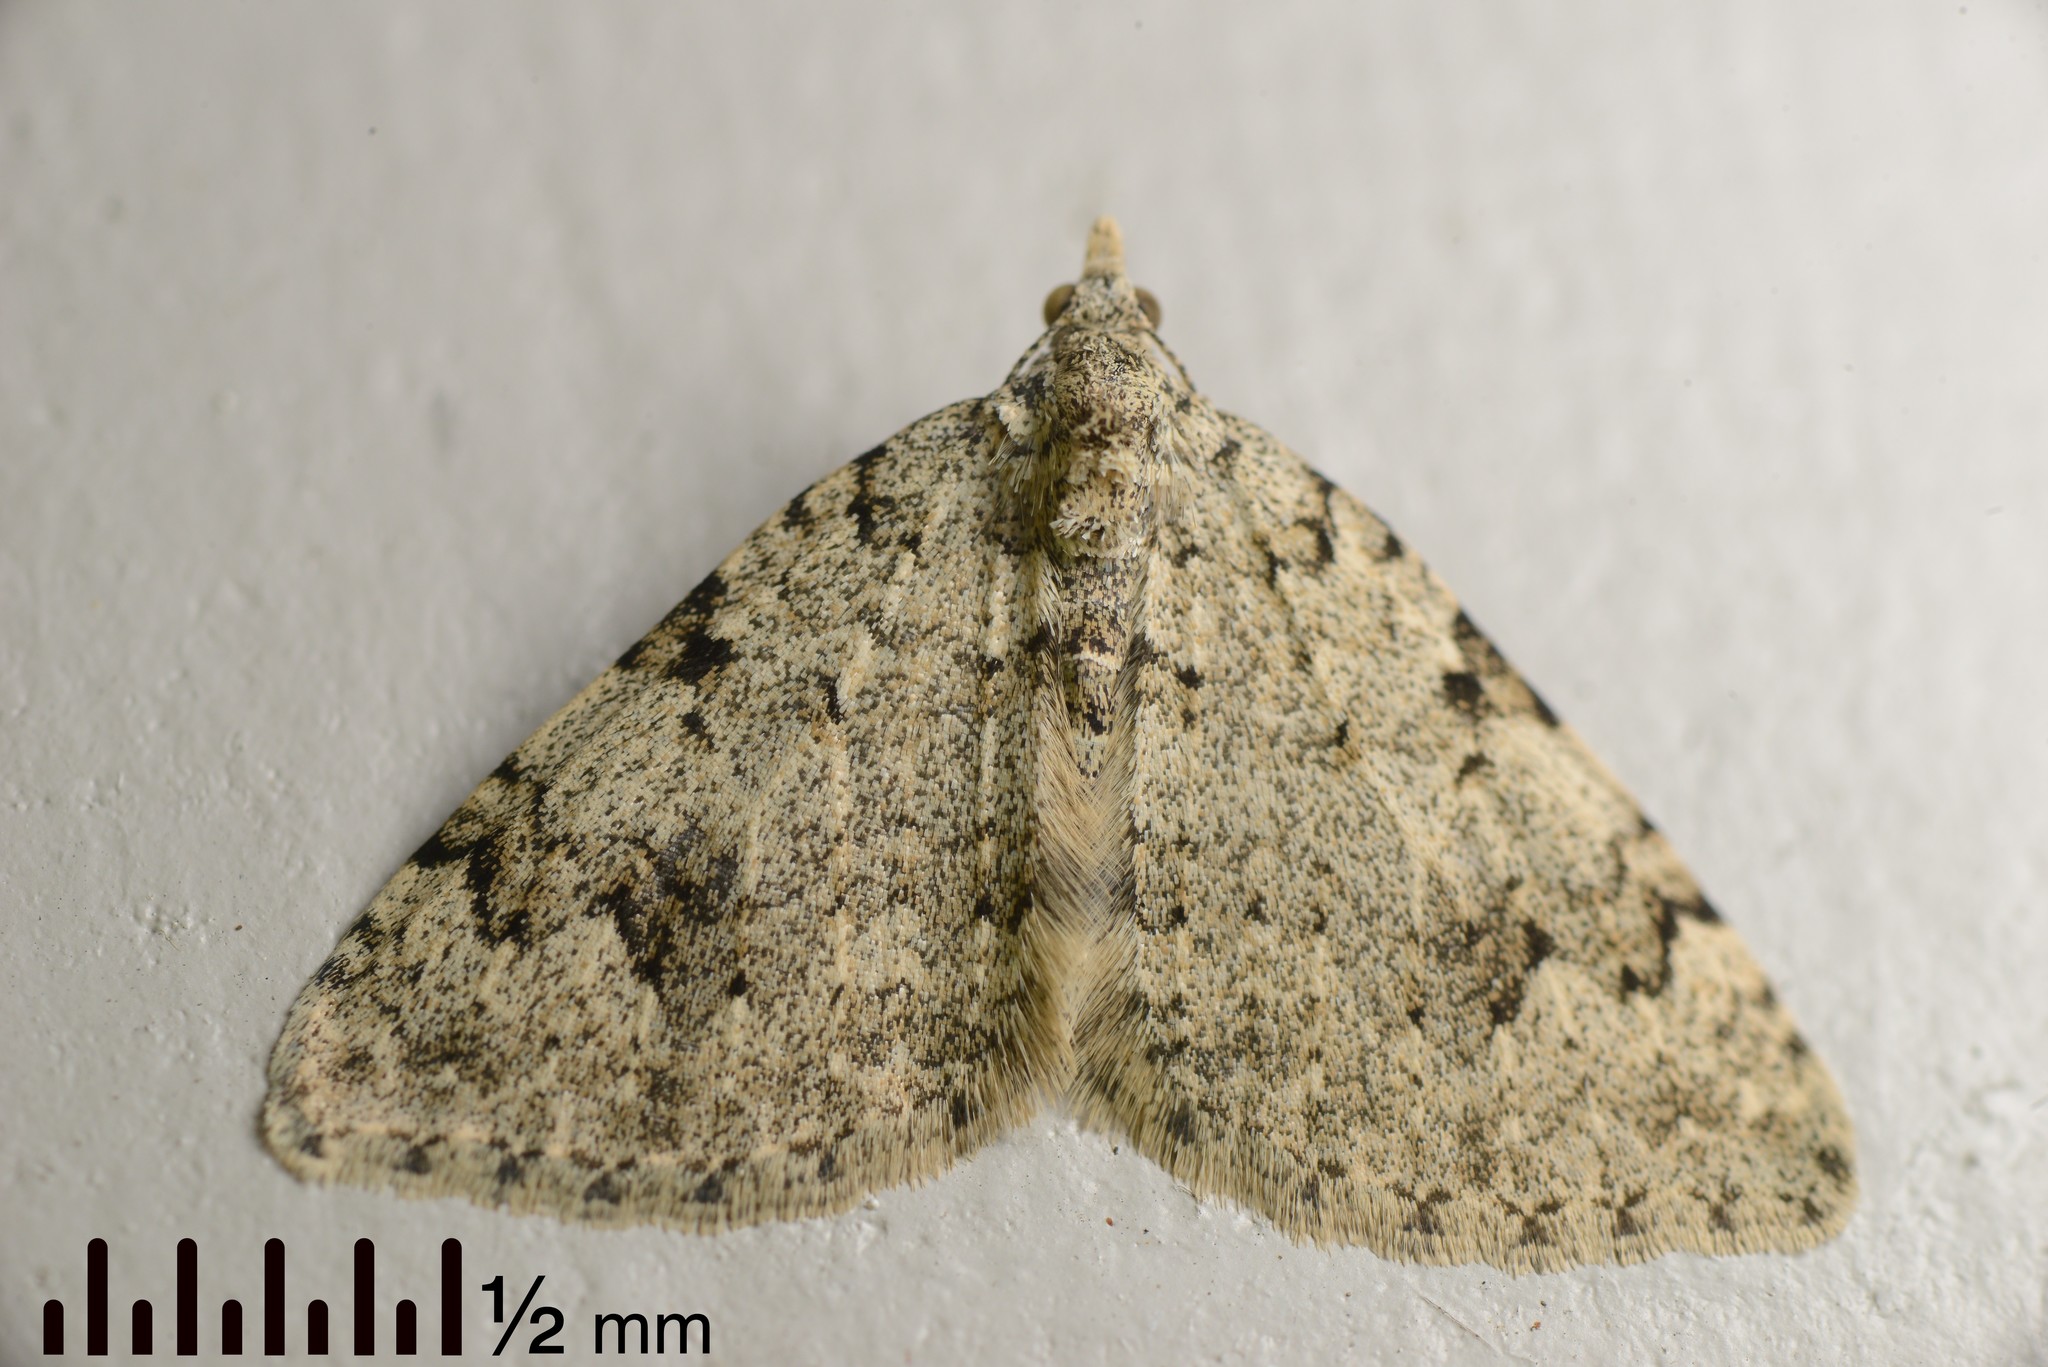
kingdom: Animalia
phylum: Arthropoda
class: Insecta
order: Lepidoptera
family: Geometridae
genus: Helastia
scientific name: Helastia cinerearia
